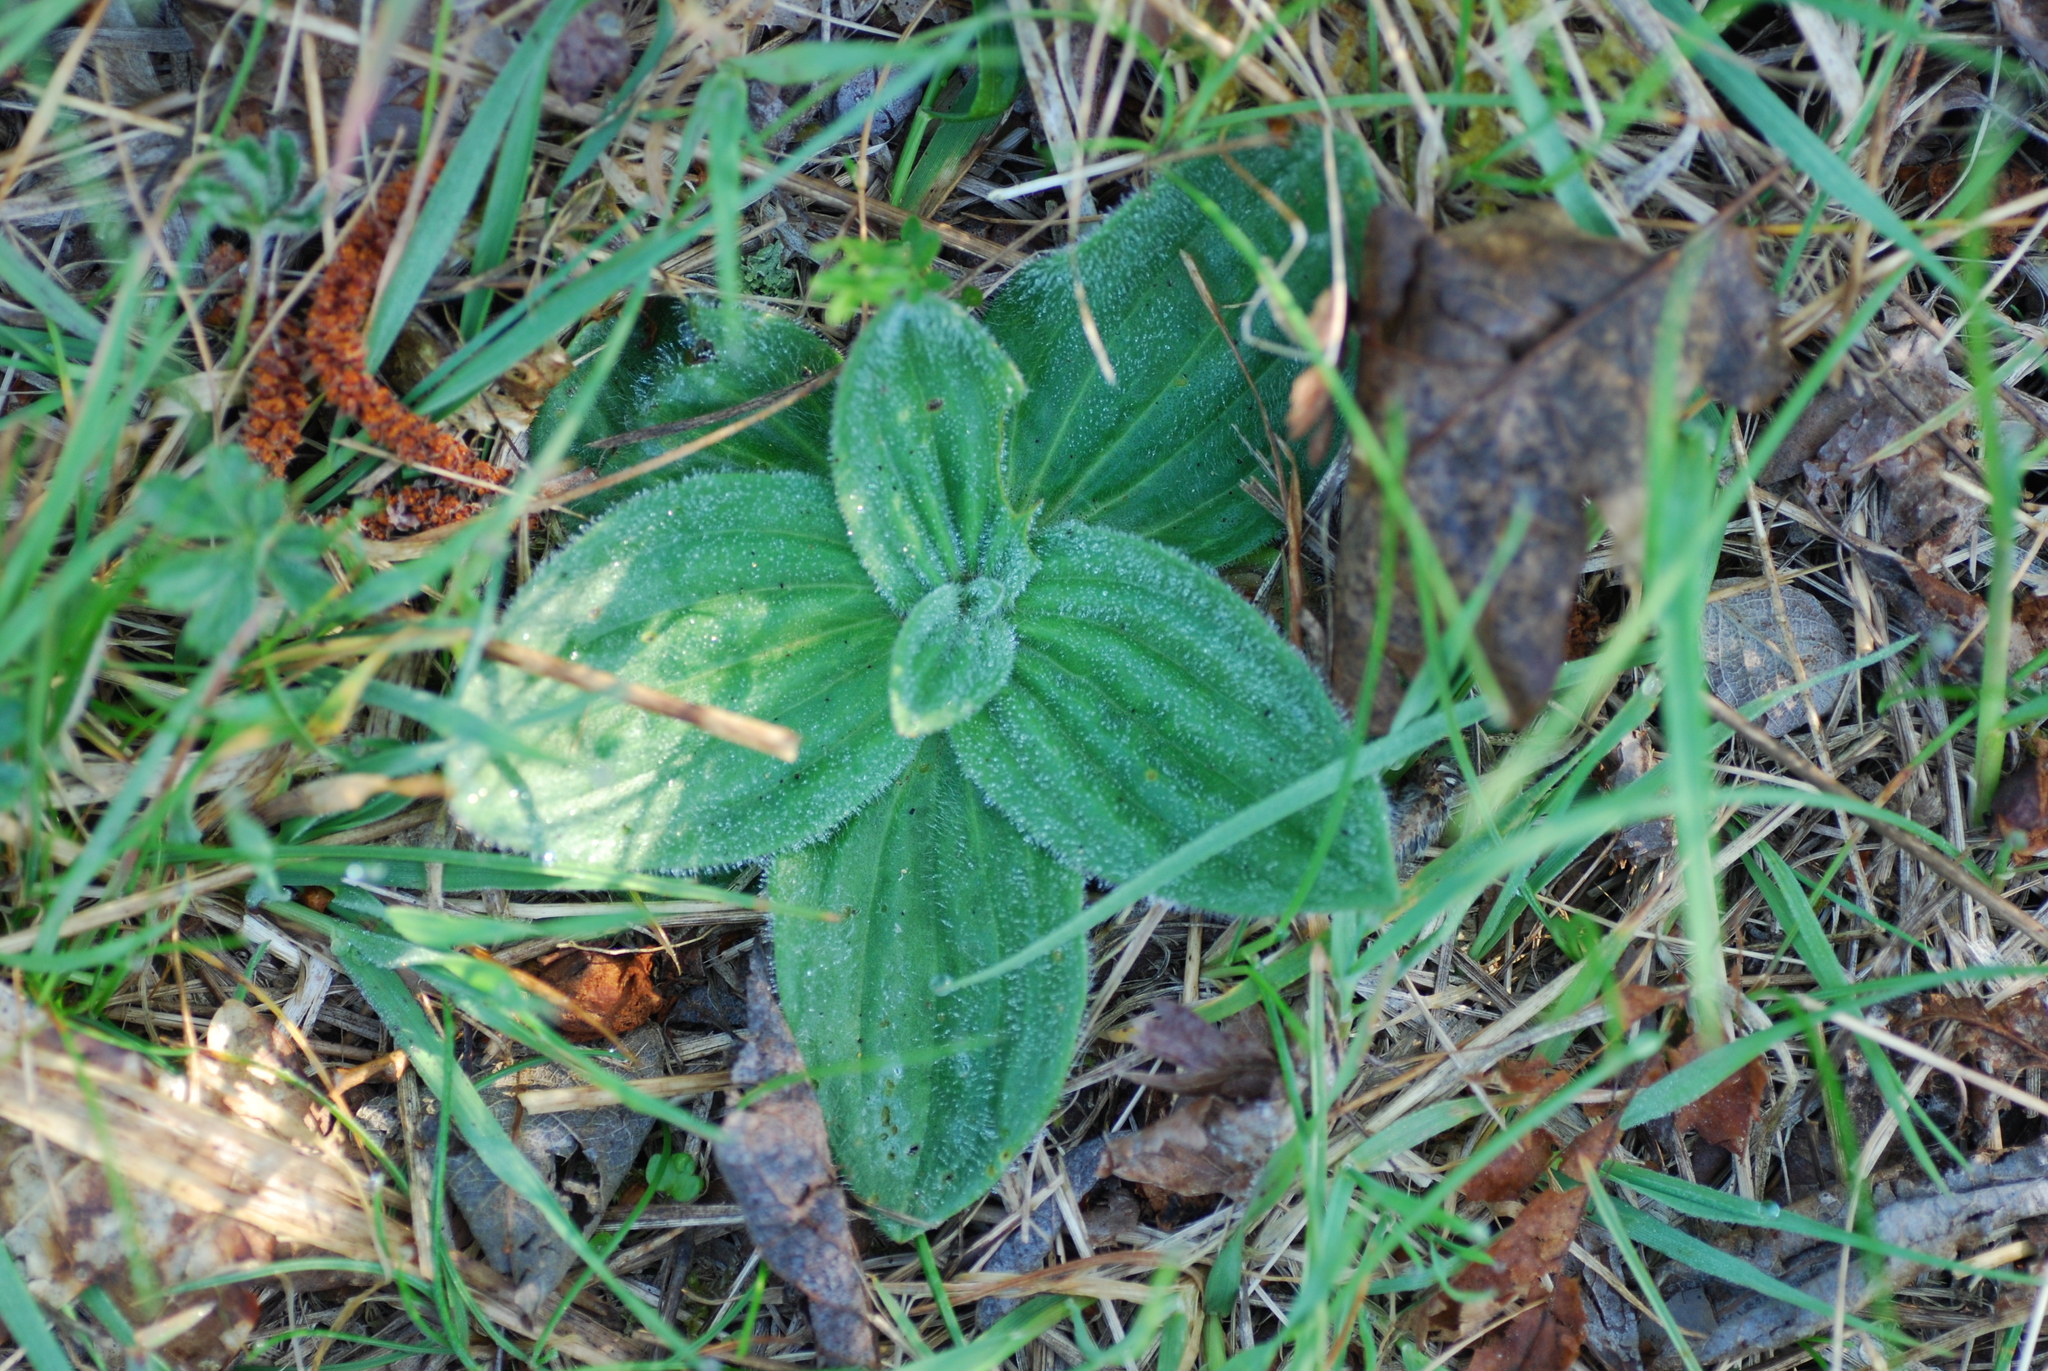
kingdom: Plantae
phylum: Tracheophyta
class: Magnoliopsida
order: Lamiales
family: Plantaginaceae
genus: Plantago
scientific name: Plantago media
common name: Hoary plantain
